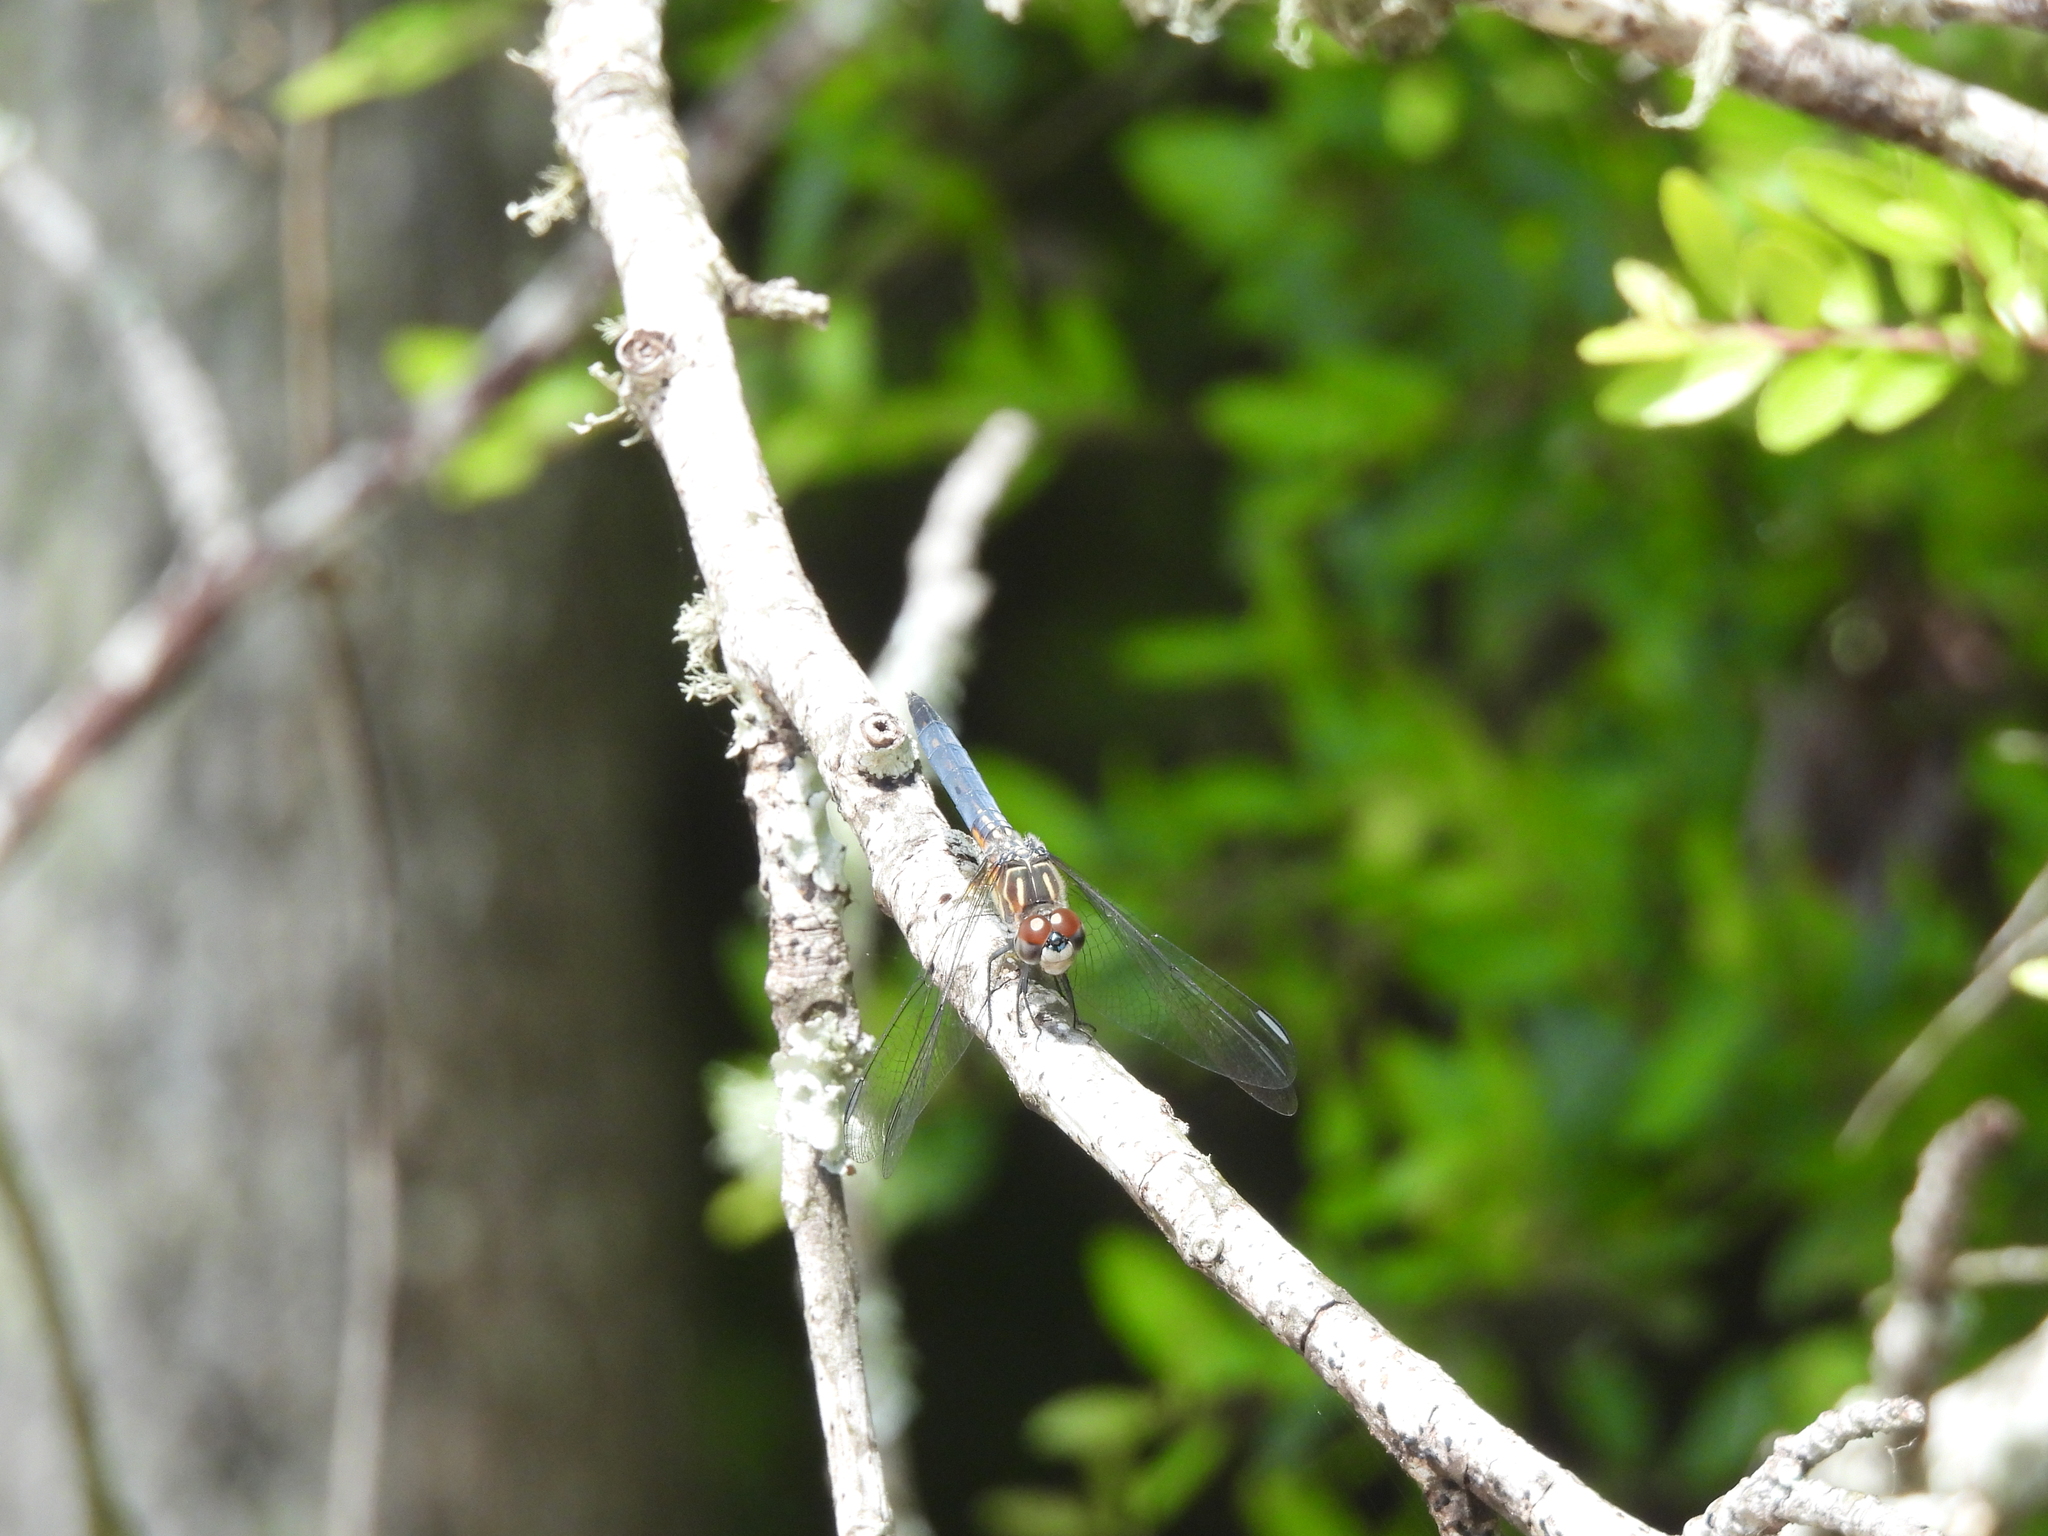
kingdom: Animalia
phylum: Arthropoda
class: Insecta
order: Odonata
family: Libellulidae
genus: Pachydiplax
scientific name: Pachydiplax longipennis
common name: Blue dasher
